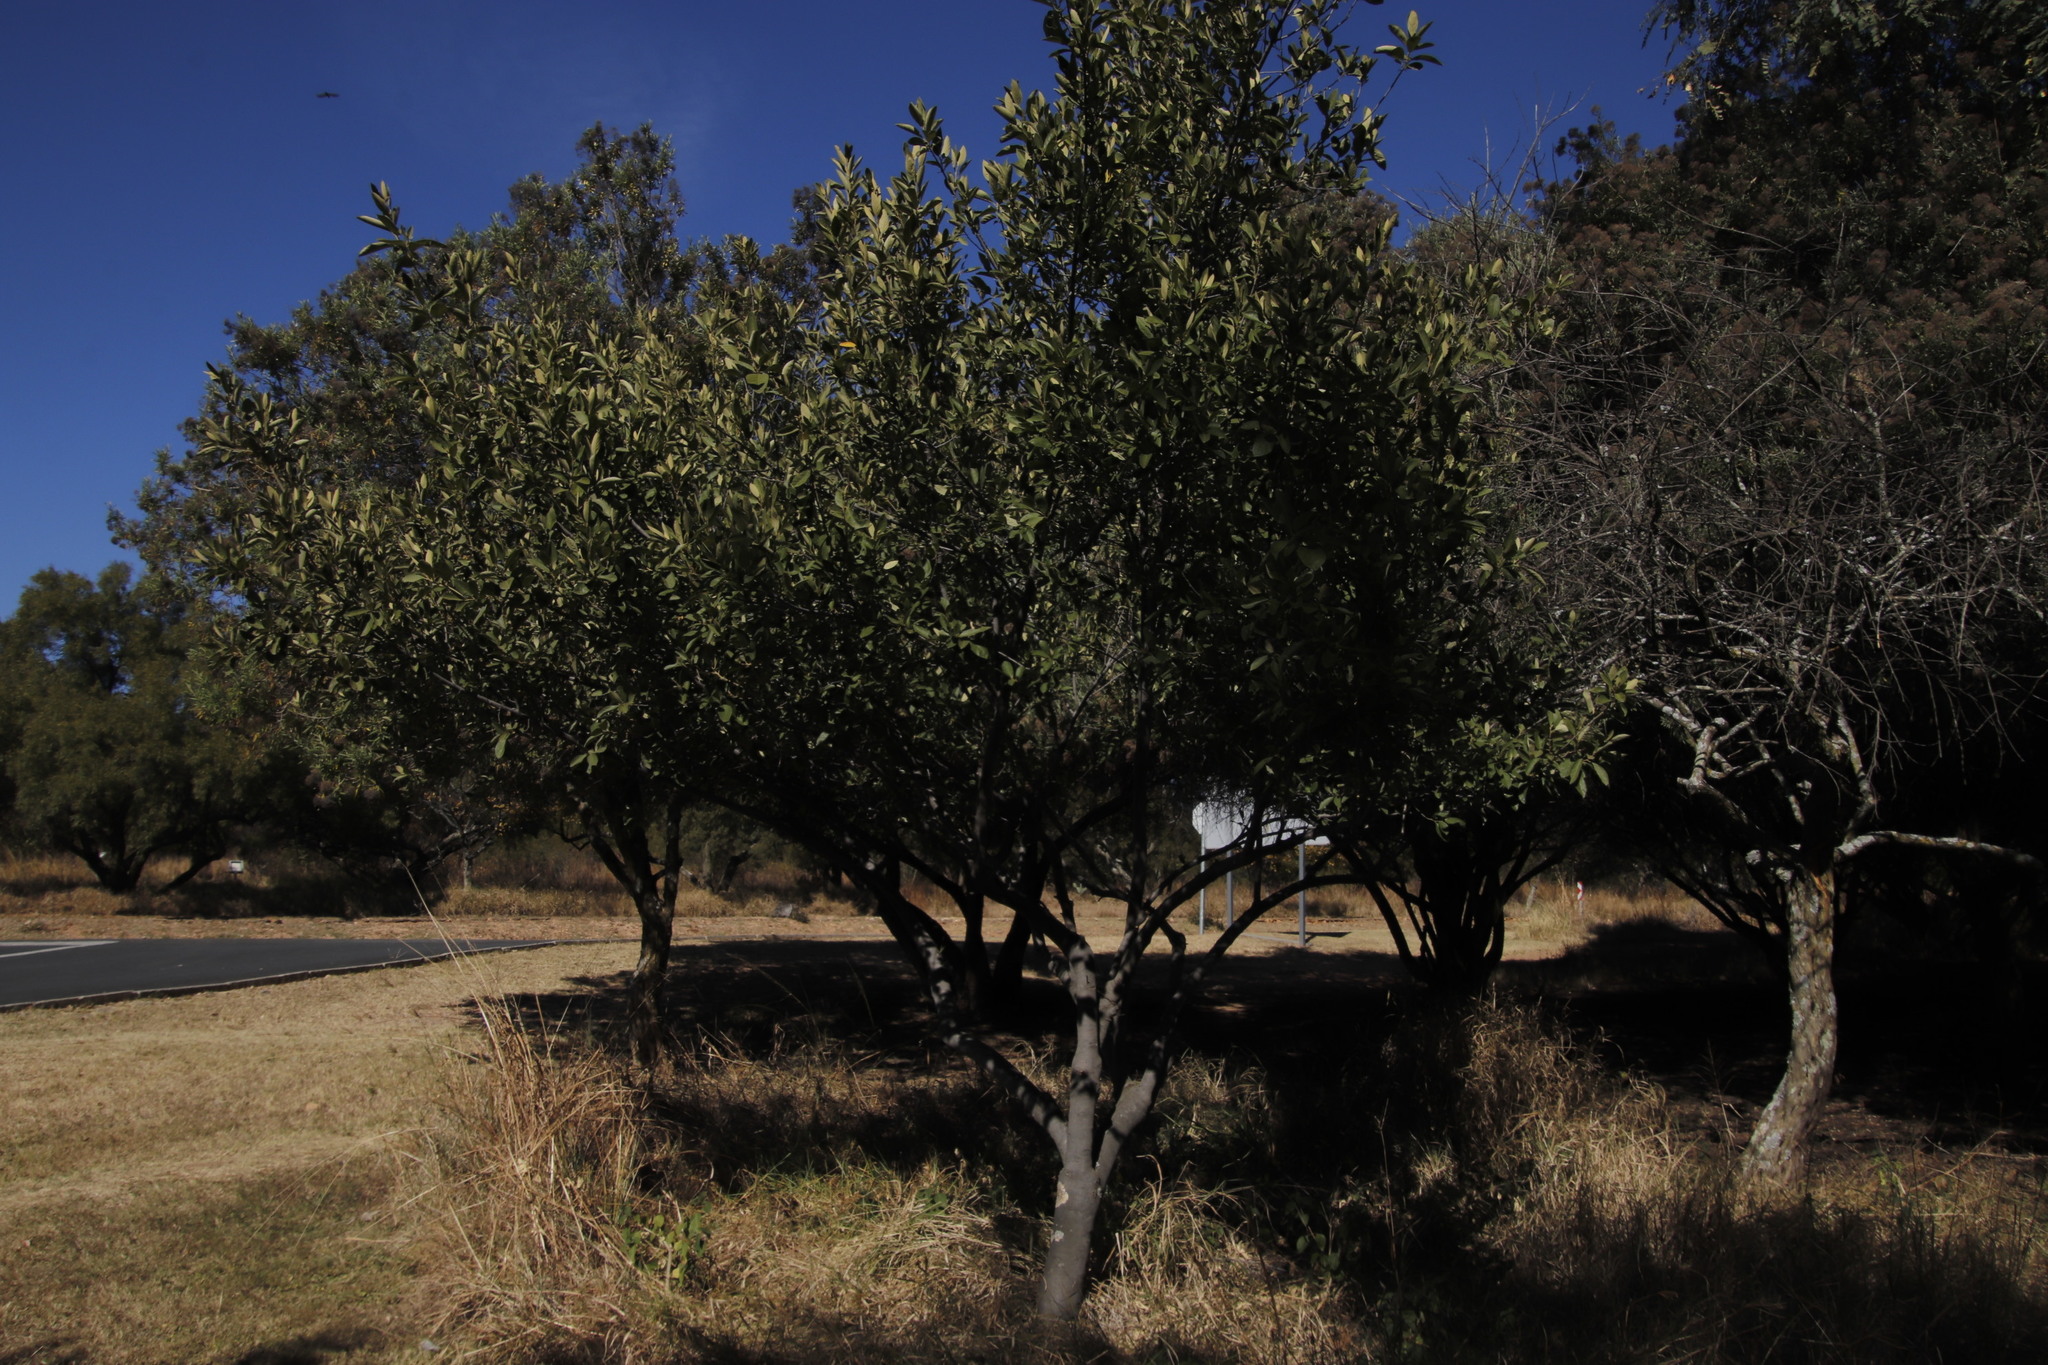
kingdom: Plantae
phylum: Tracheophyta
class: Magnoliopsida
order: Malpighiales
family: Achariaceae
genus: Kiggelaria
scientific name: Kiggelaria africana
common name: Wild peach
